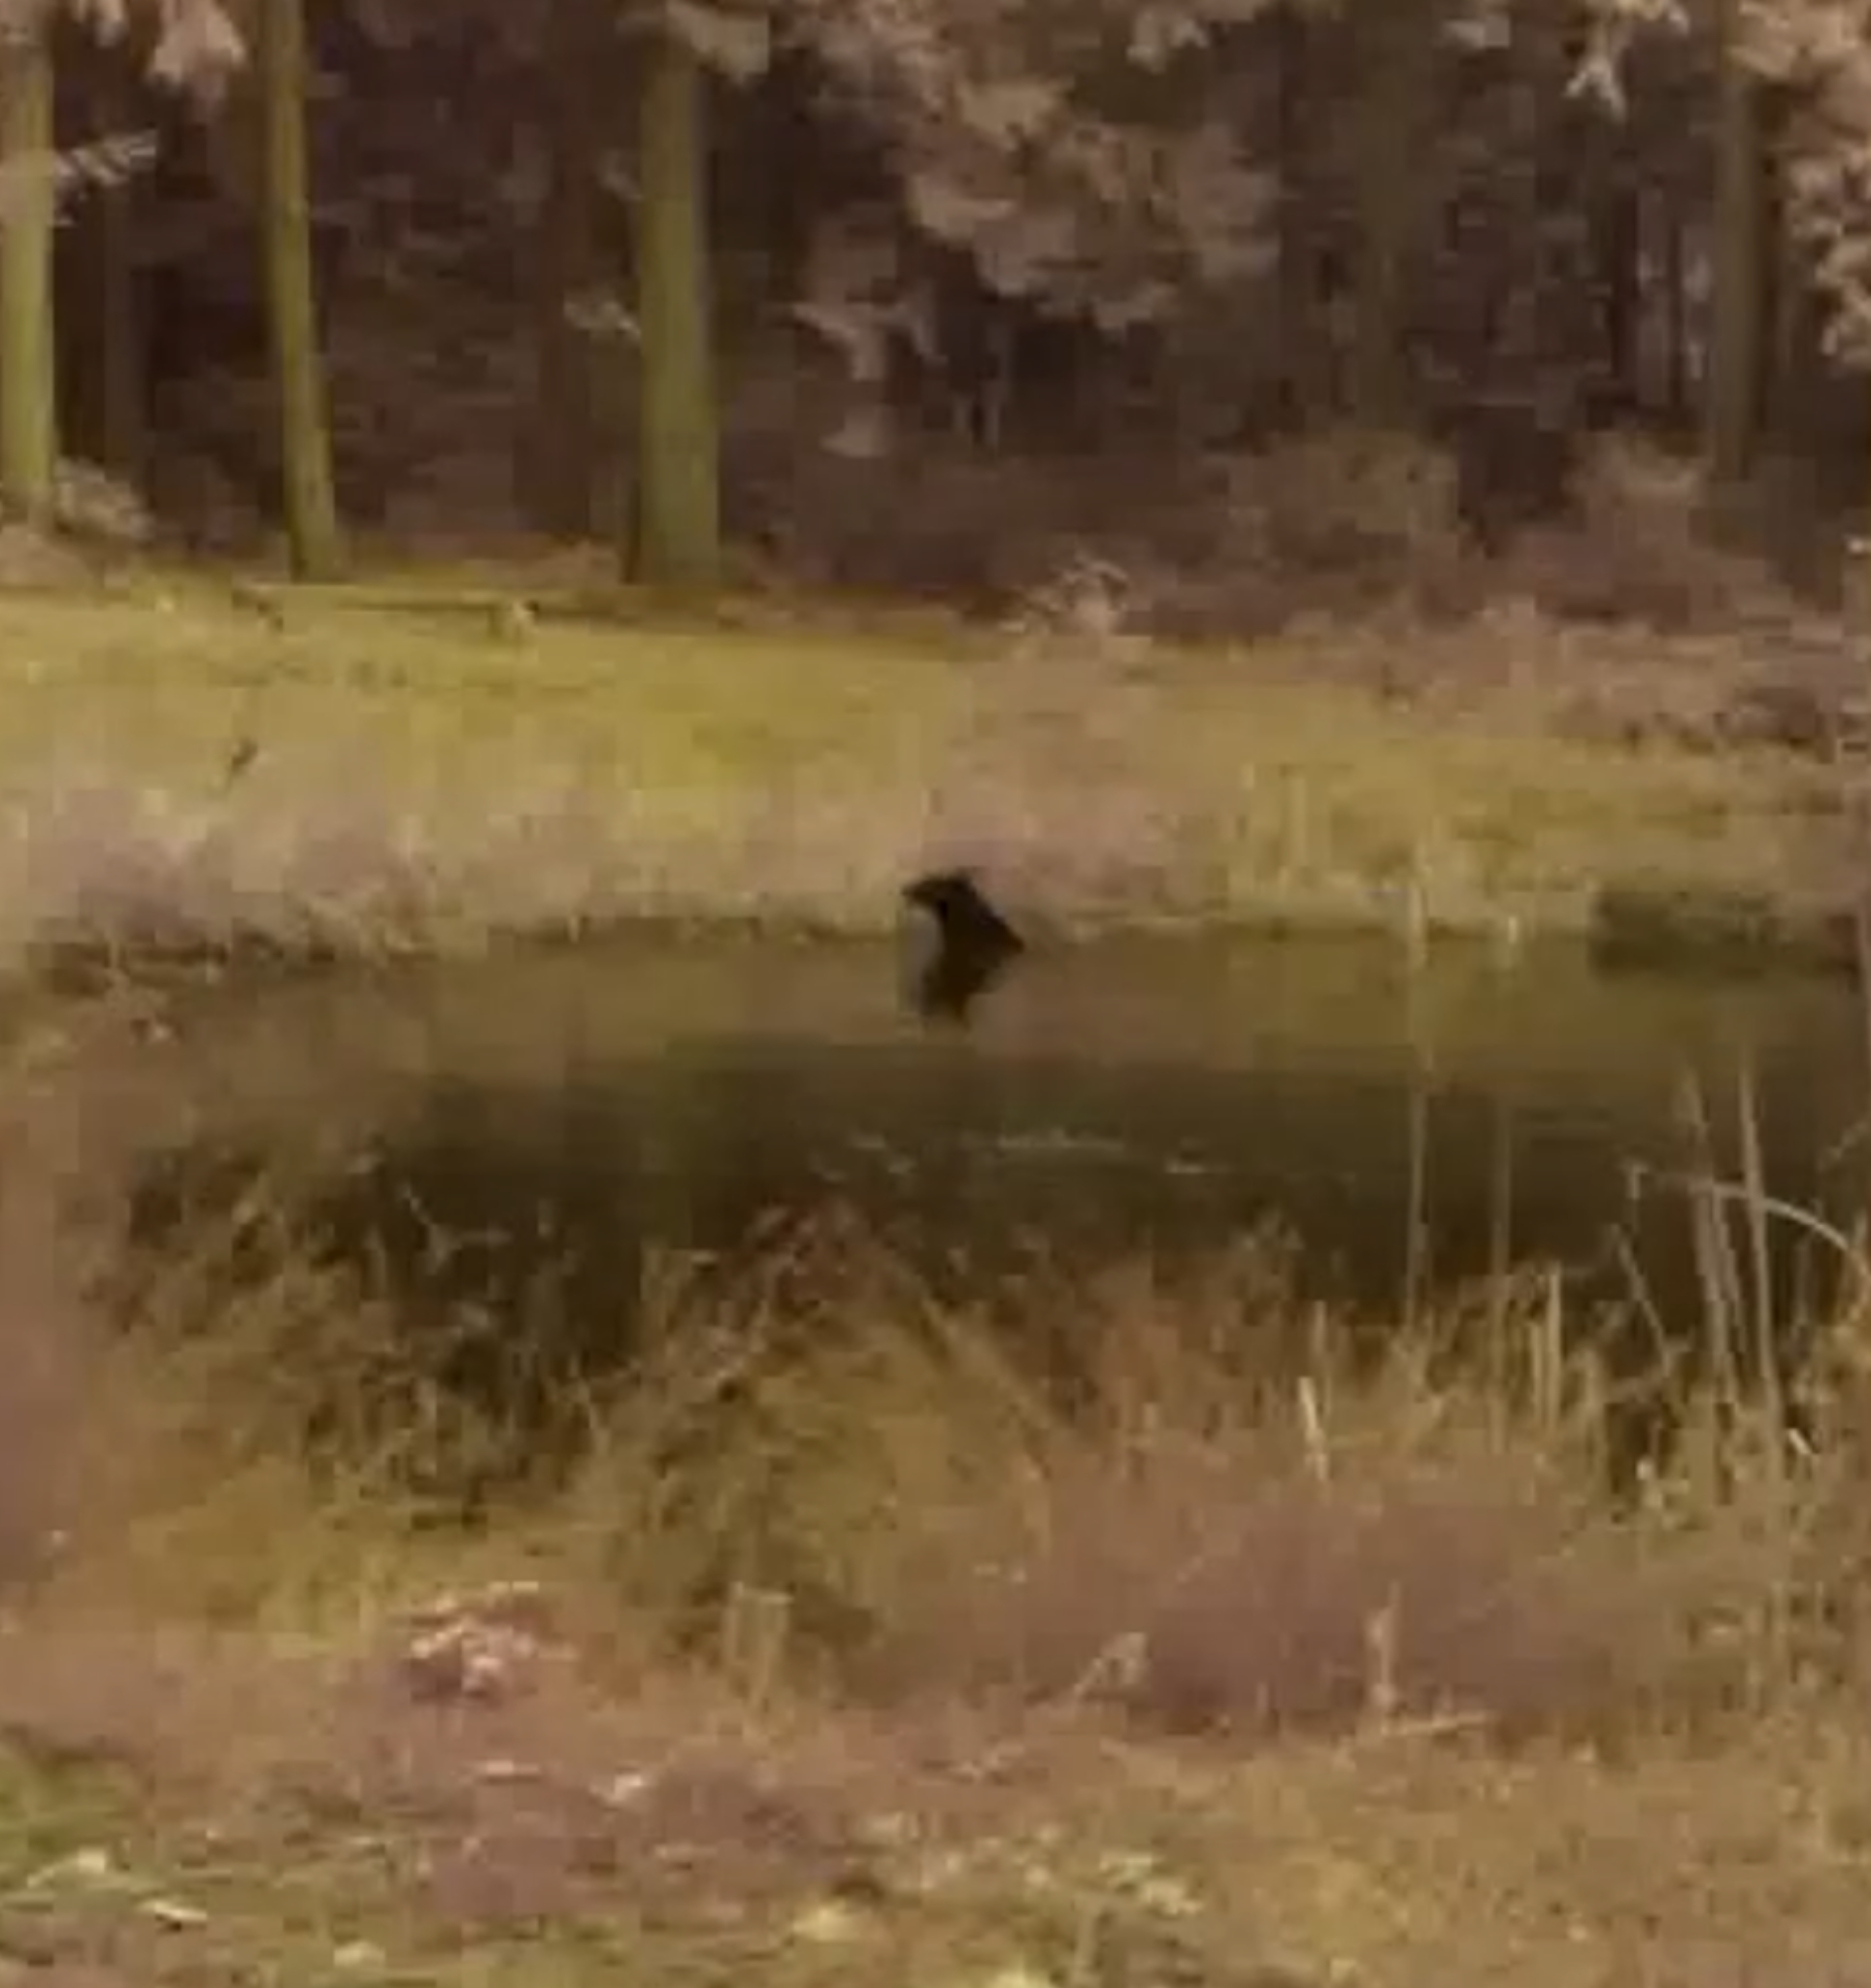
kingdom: Animalia
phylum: Chordata
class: Mammalia
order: Carnivora
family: Ursidae
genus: Ursus
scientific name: Ursus americanus
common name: American black bear
